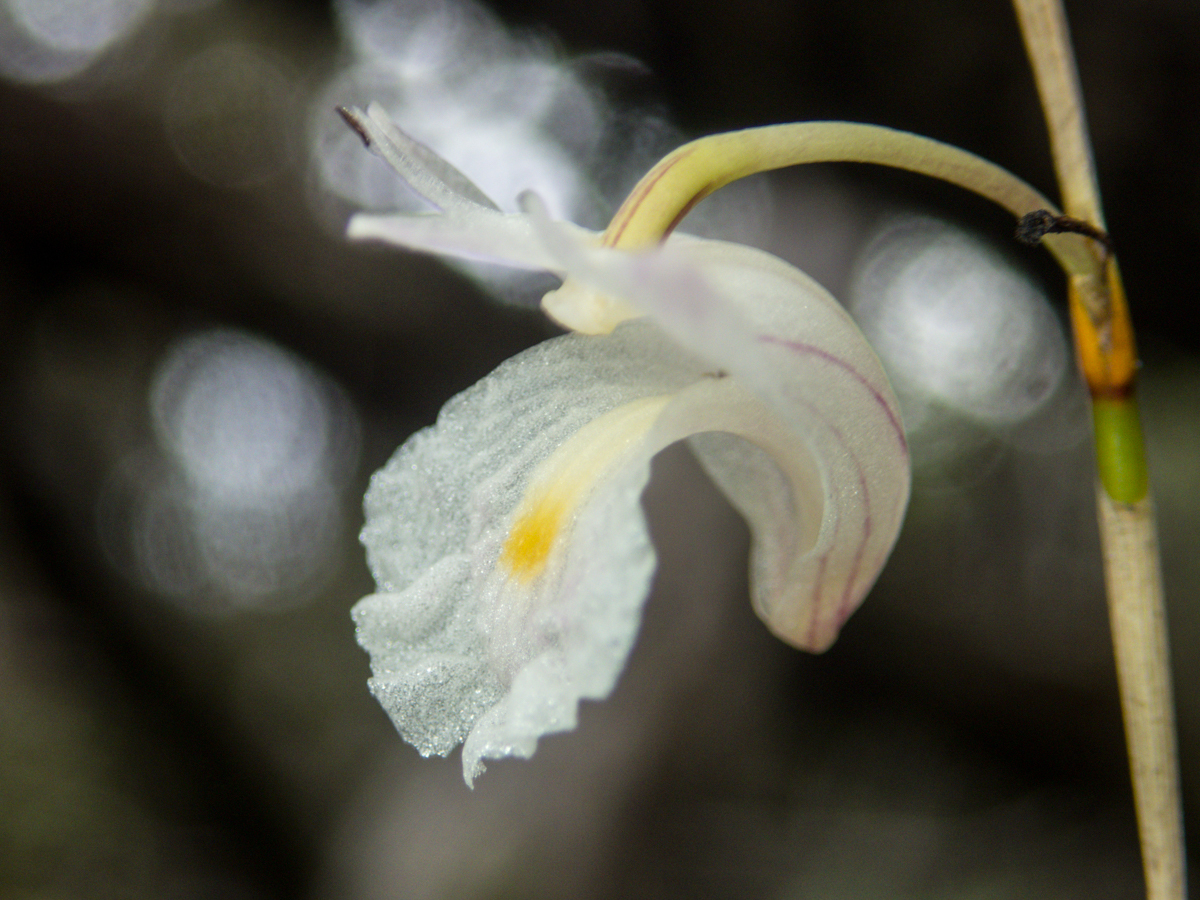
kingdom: Plantae
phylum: Tracheophyta
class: Liliopsida
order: Asparagales
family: Orchidaceae
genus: Dendrobium
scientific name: Dendrobium acerosum
